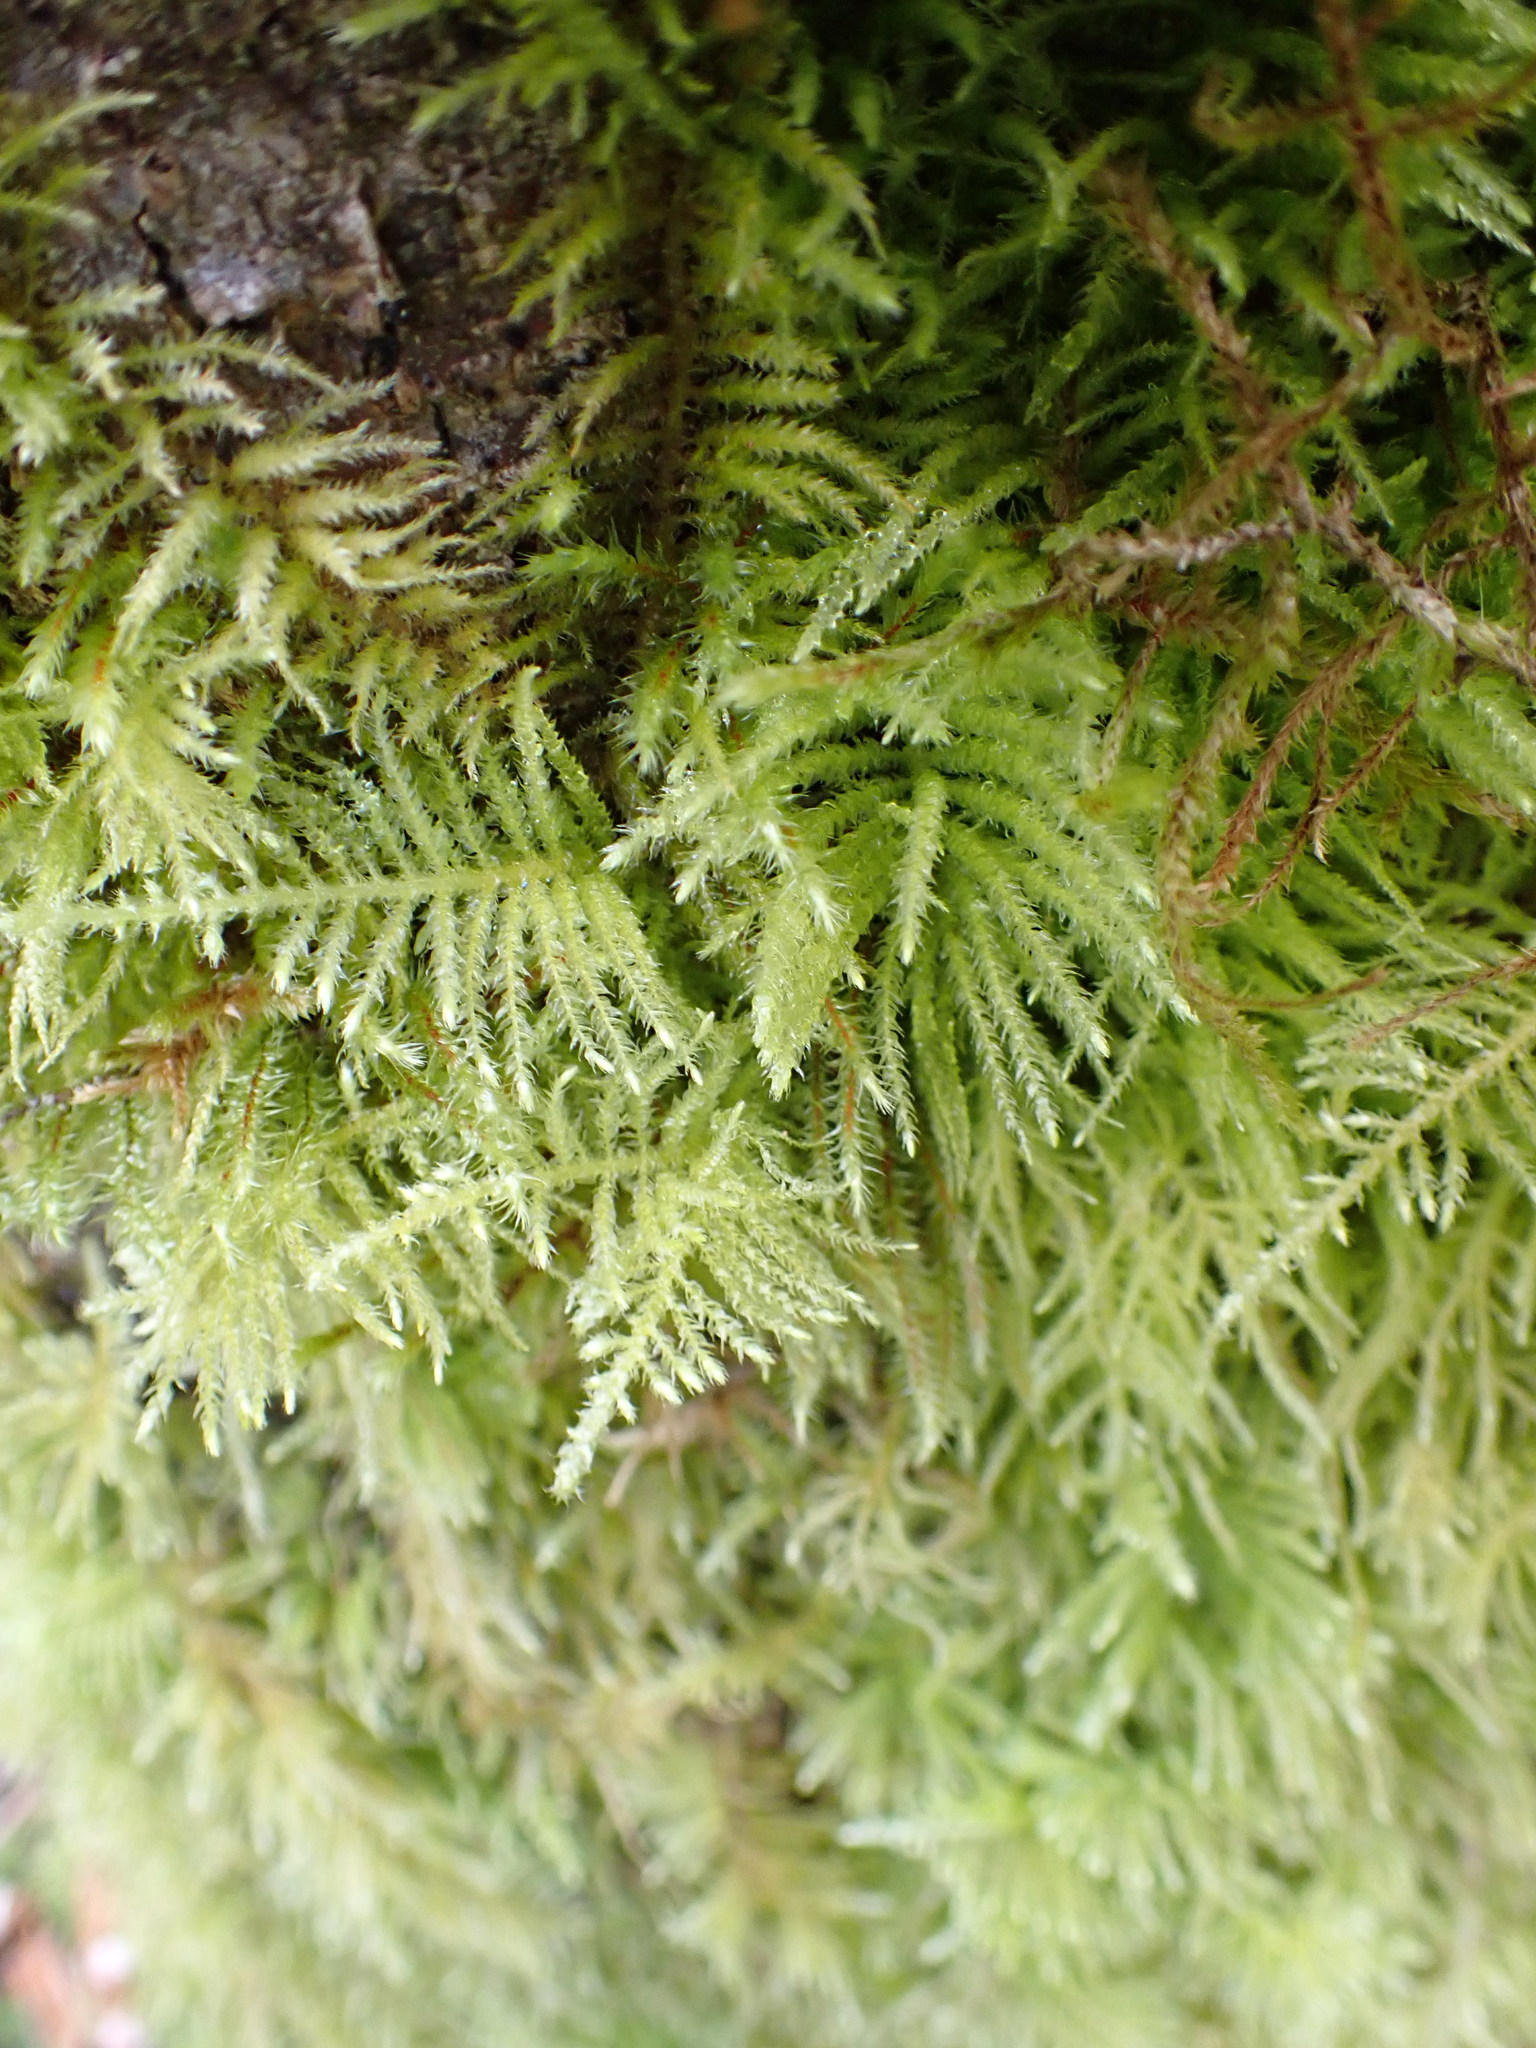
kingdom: Plantae
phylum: Bryophyta
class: Bryopsida
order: Hypnales
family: Brachytheciaceae
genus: Kindbergia
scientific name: Kindbergia oregana
